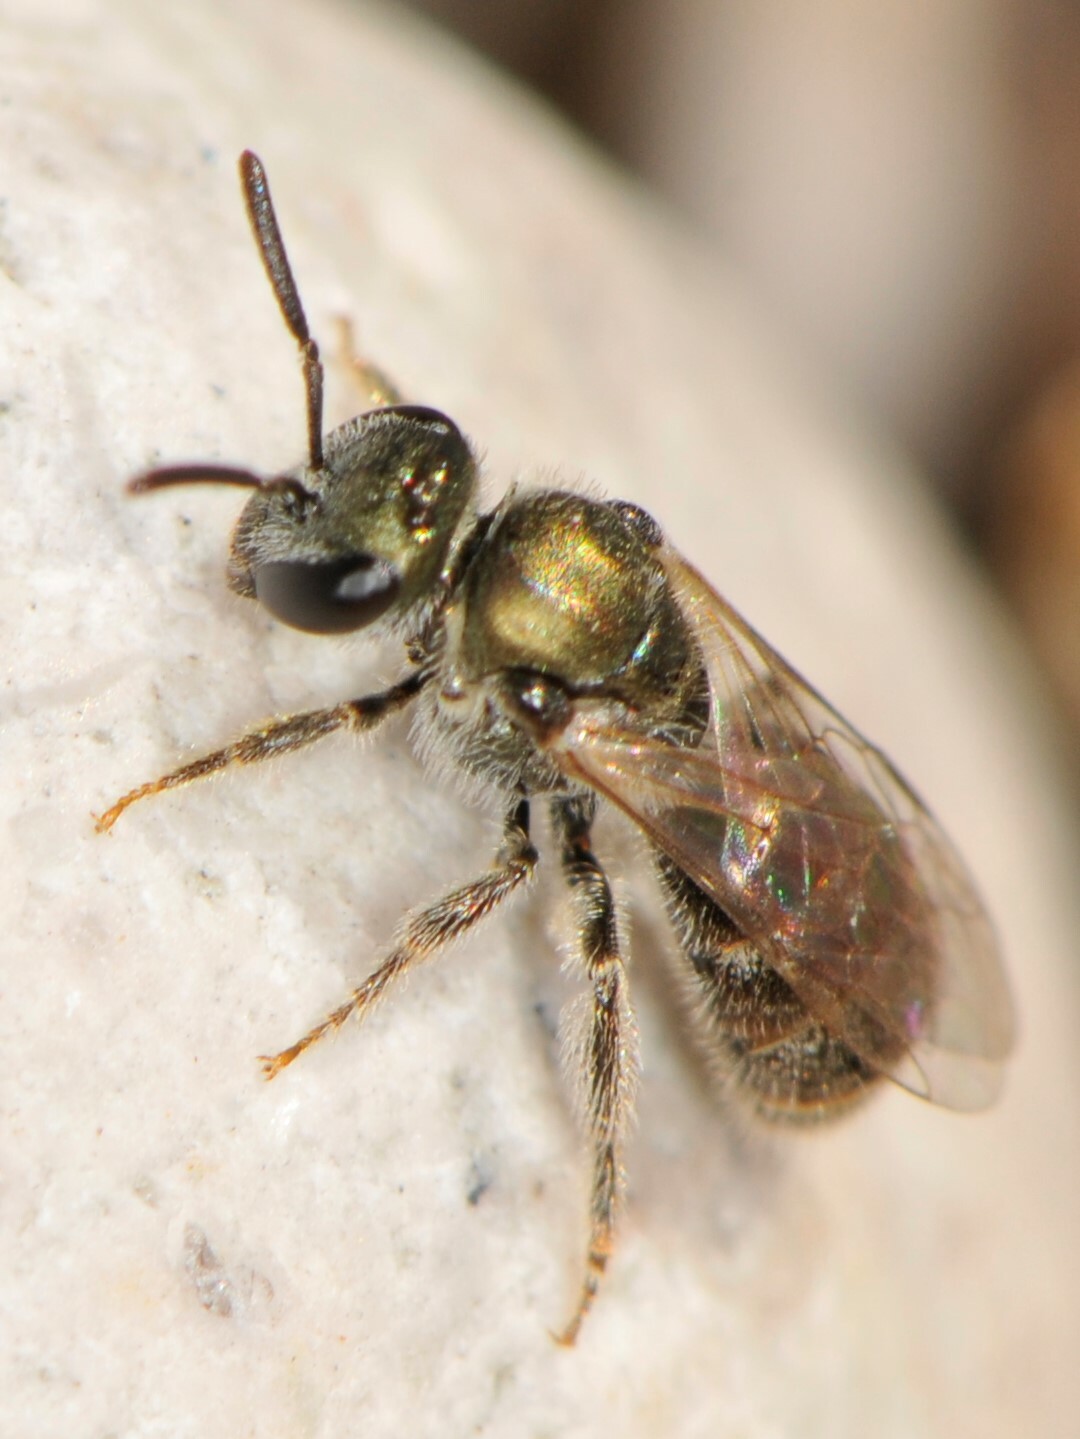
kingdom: Animalia
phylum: Arthropoda
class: Insecta
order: Hymenoptera
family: Halictidae
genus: Dialictus
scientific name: Dialictus
